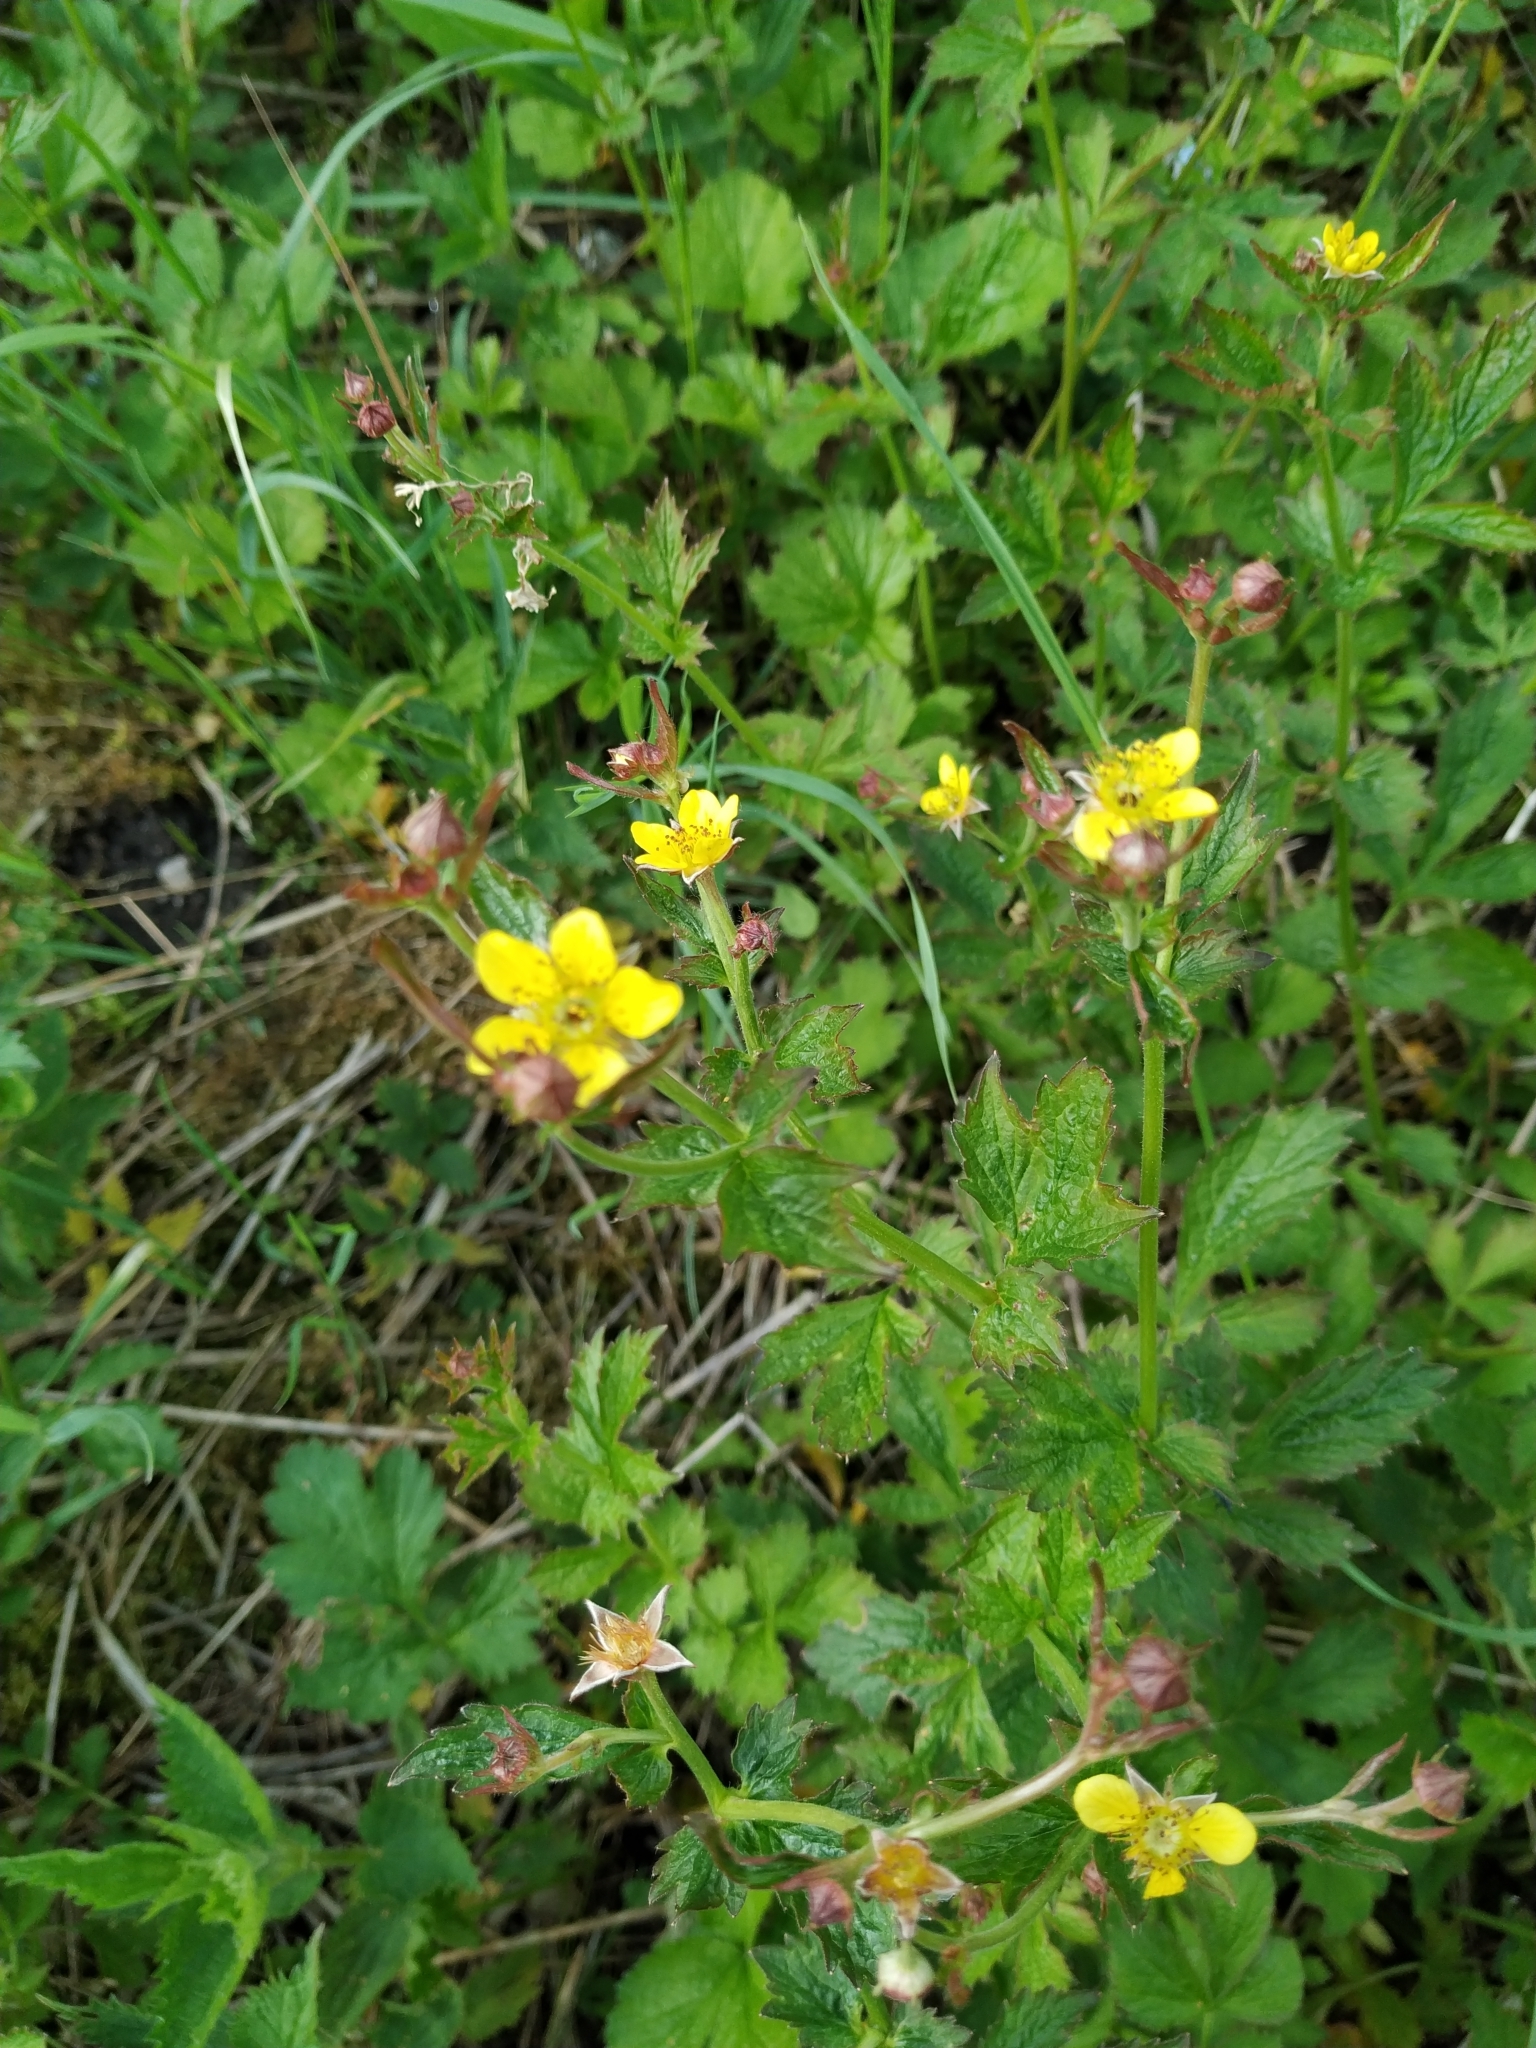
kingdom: Plantae
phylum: Tracheophyta
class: Magnoliopsida
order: Rosales
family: Rosaceae
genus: Geum
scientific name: Geum urbanum
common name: Wood avens
